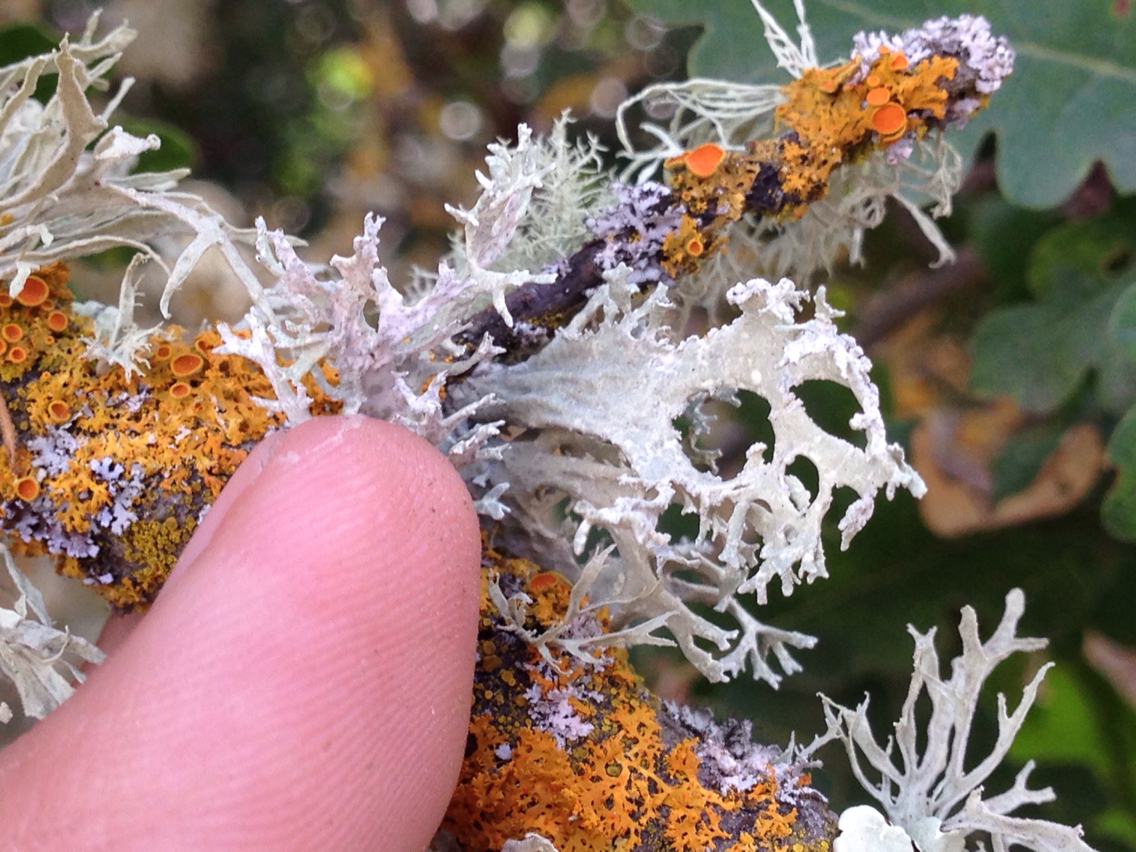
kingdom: Fungi
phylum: Ascomycota
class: Lecanoromycetes
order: Lecanorales
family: Parmeliaceae
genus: Evernia
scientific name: Evernia prunastri
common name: Oak moss
